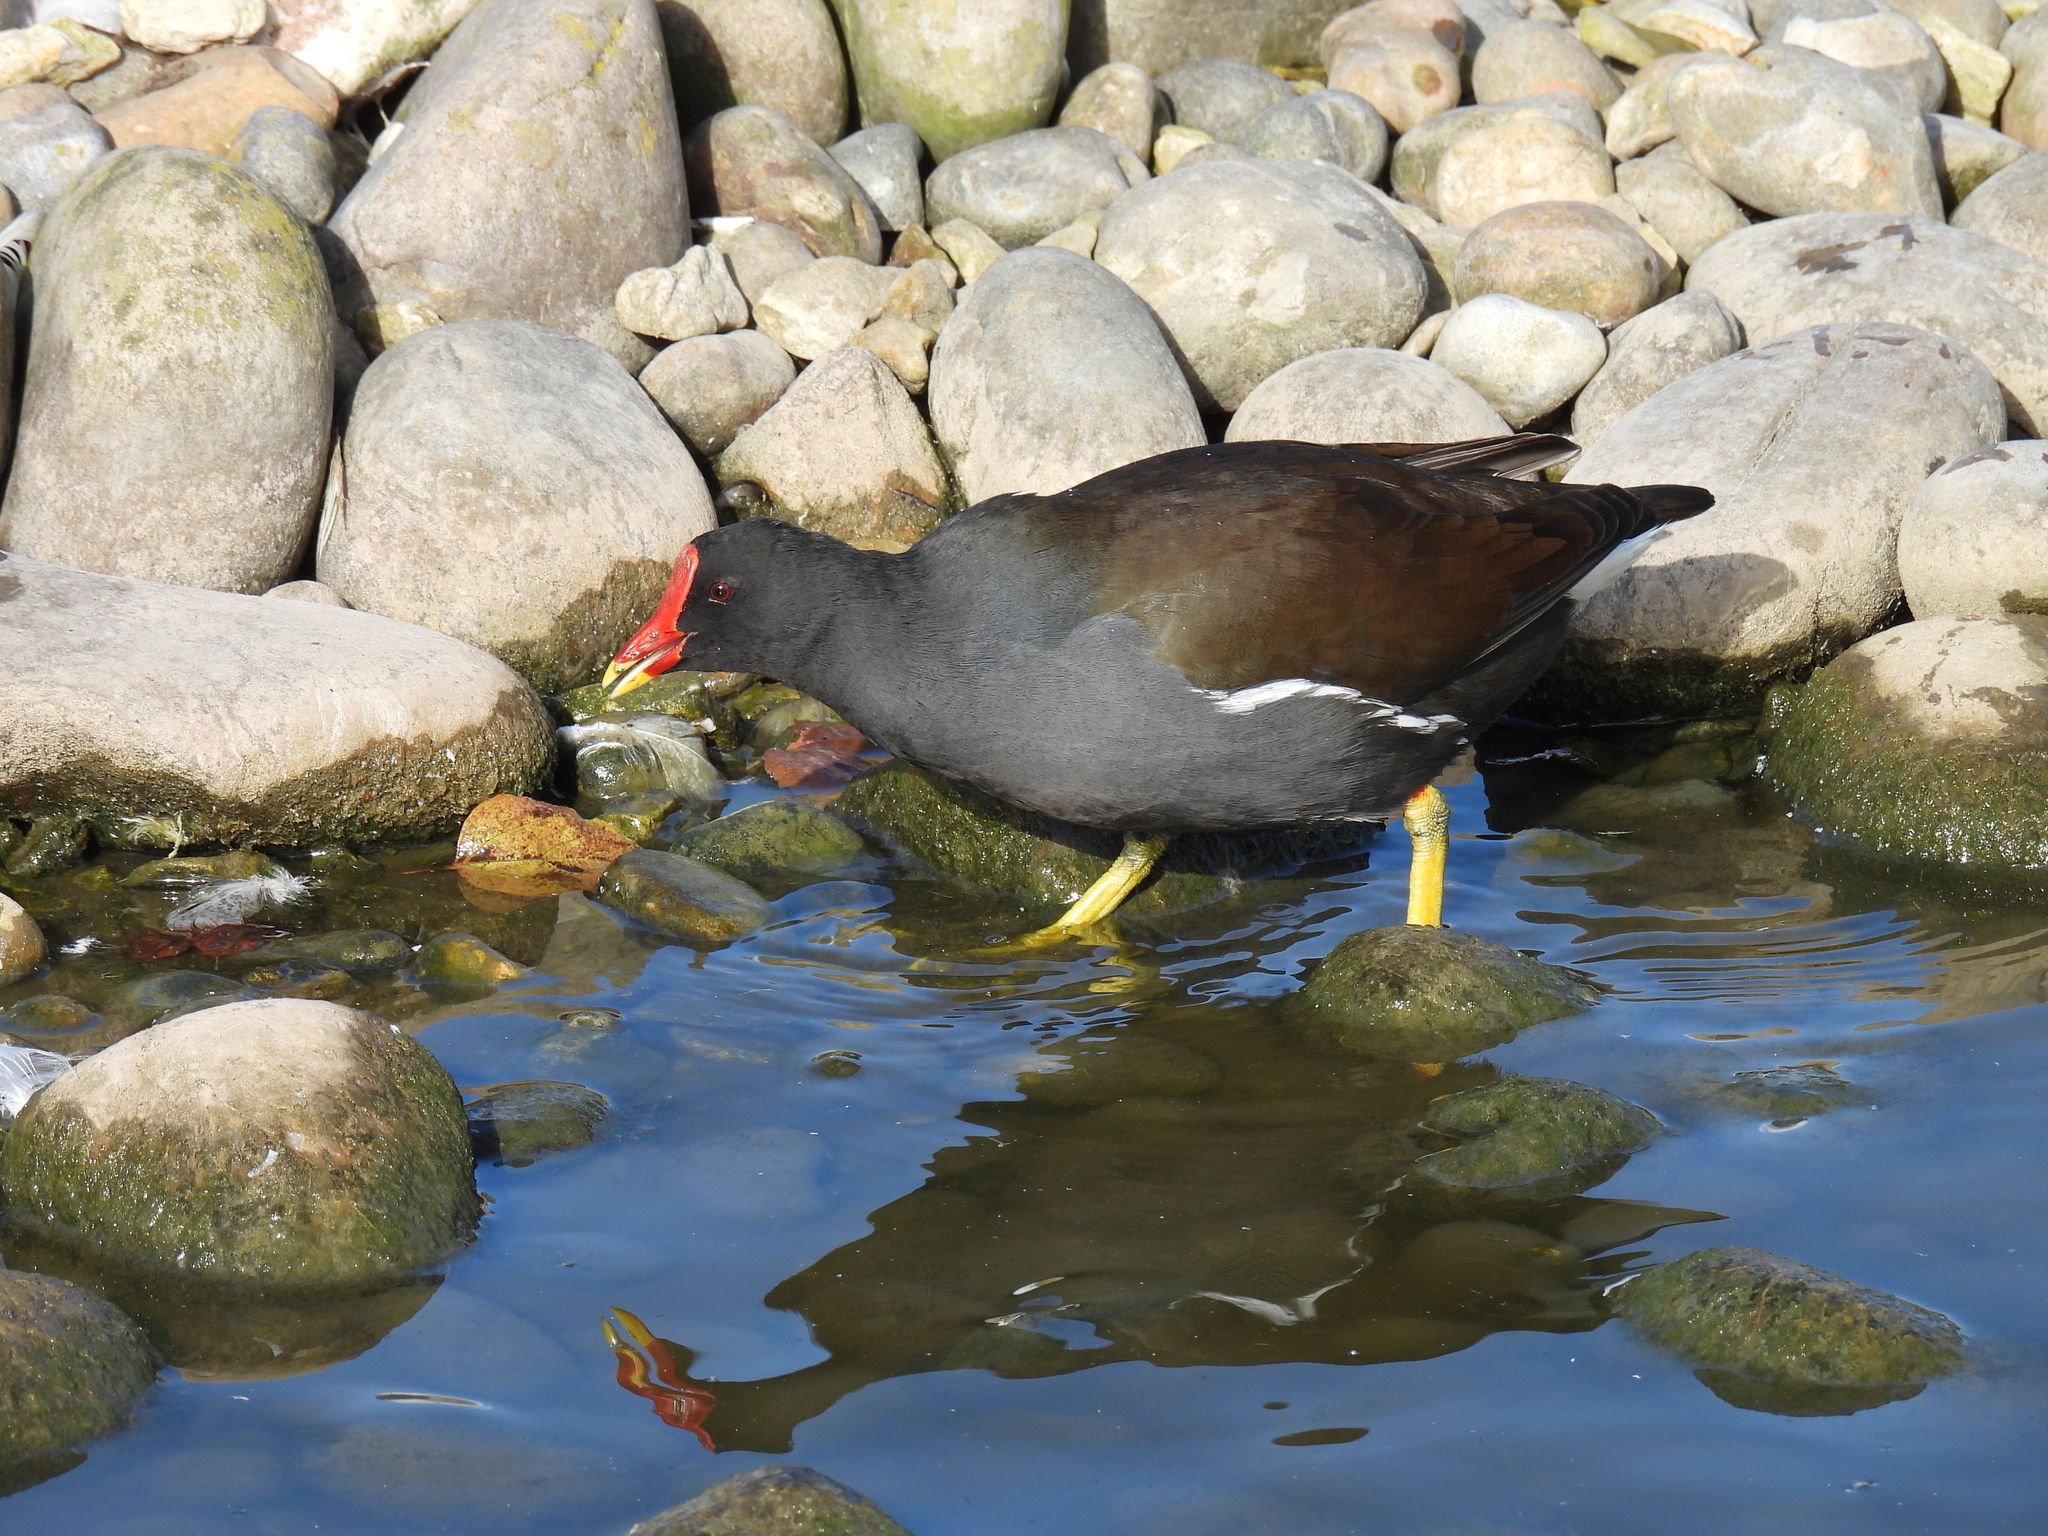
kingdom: Animalia
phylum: Chordata
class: Aves
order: Gruiformes
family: Rallidae
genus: Gallinula
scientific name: Gallinula chloropus
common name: Common moorhen
